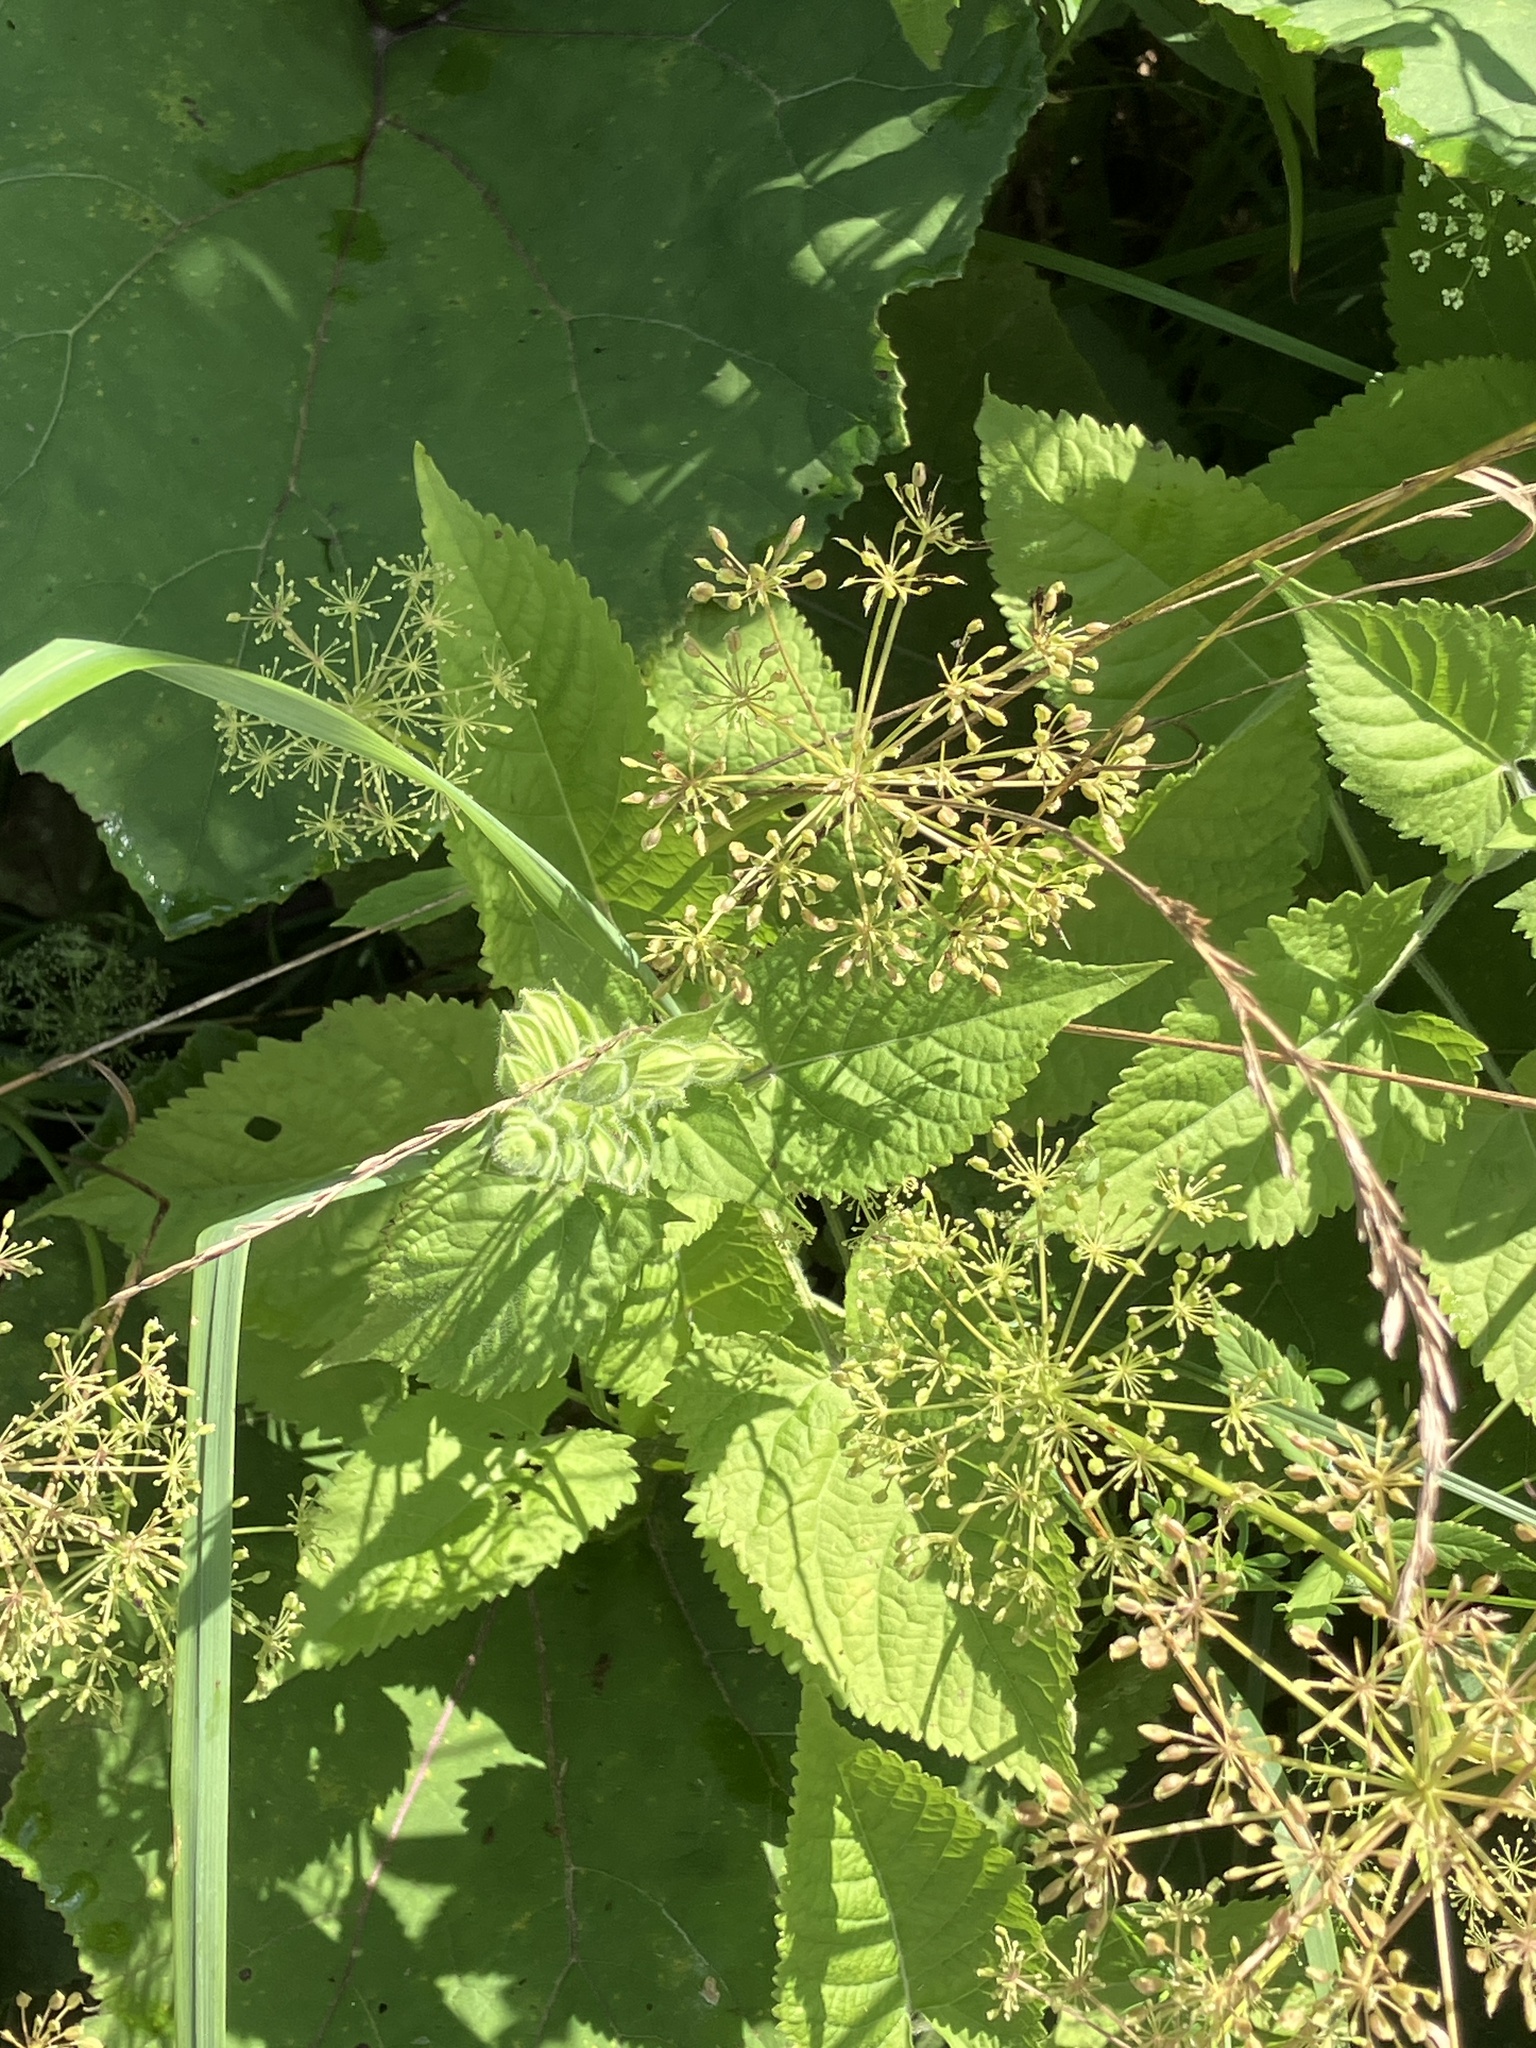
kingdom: Plantae
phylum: Tracheophyta
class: Magnoliopsida
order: Lamiales
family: Lamiaceae
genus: Salvia
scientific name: Salvia glutinosa
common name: Sticky clary
